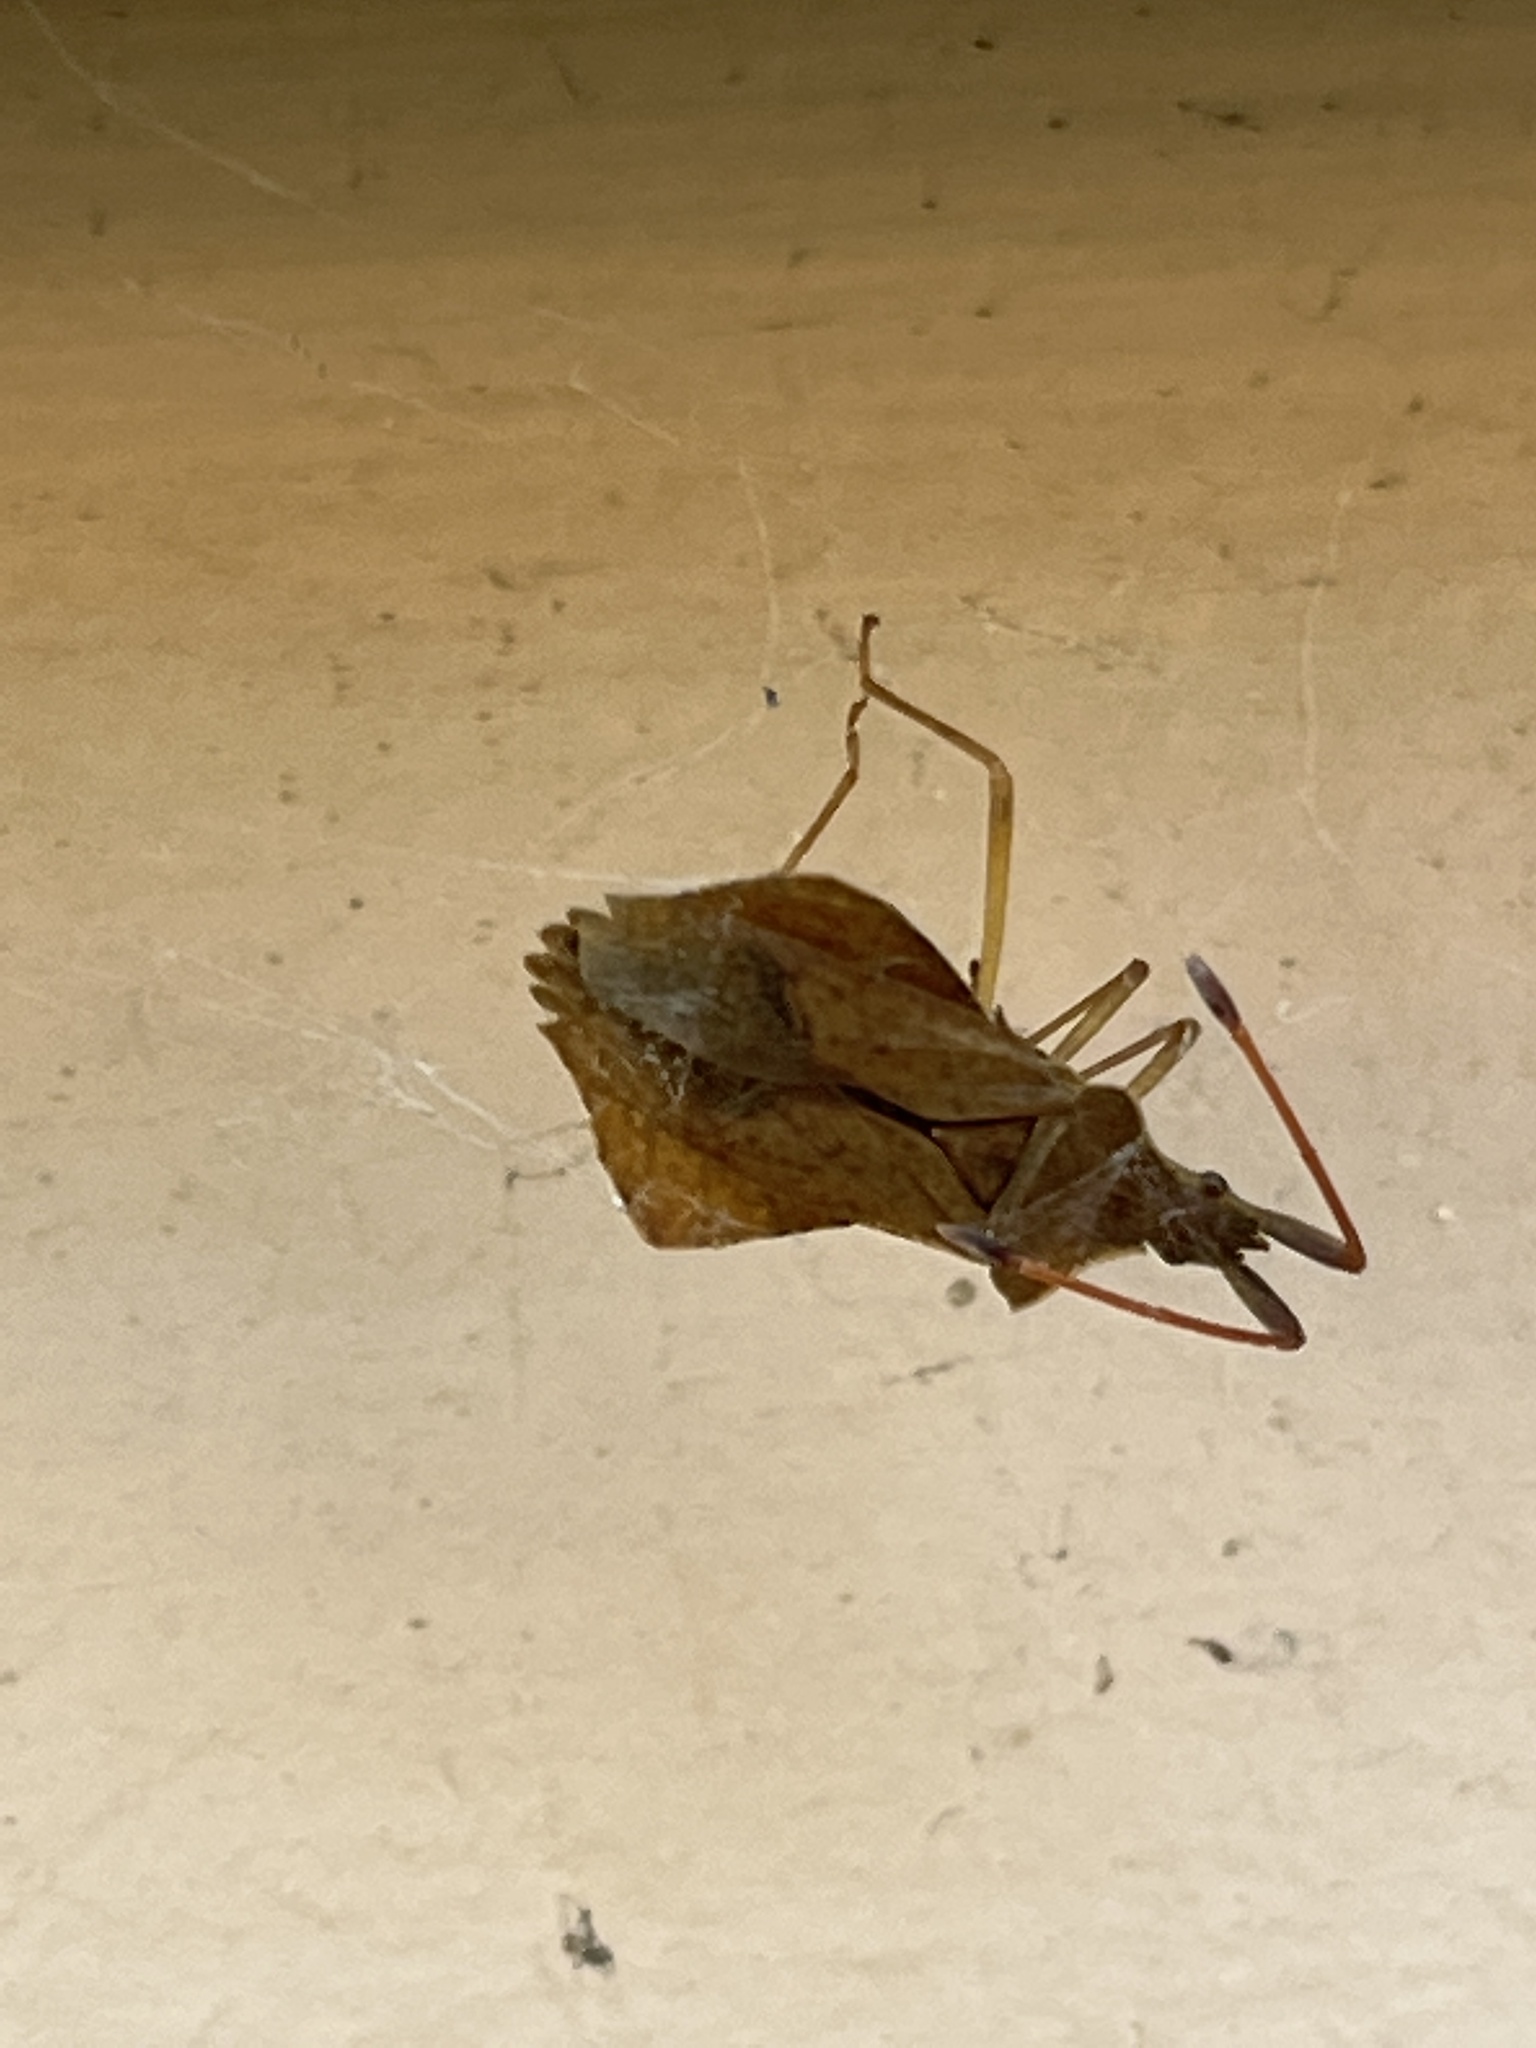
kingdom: Animalia
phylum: Arthropoda
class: Insecta
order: Hemiptera
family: Coreidae
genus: Syromastus
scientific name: Syromastus rhombeus
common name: Rhombic leatherbug
